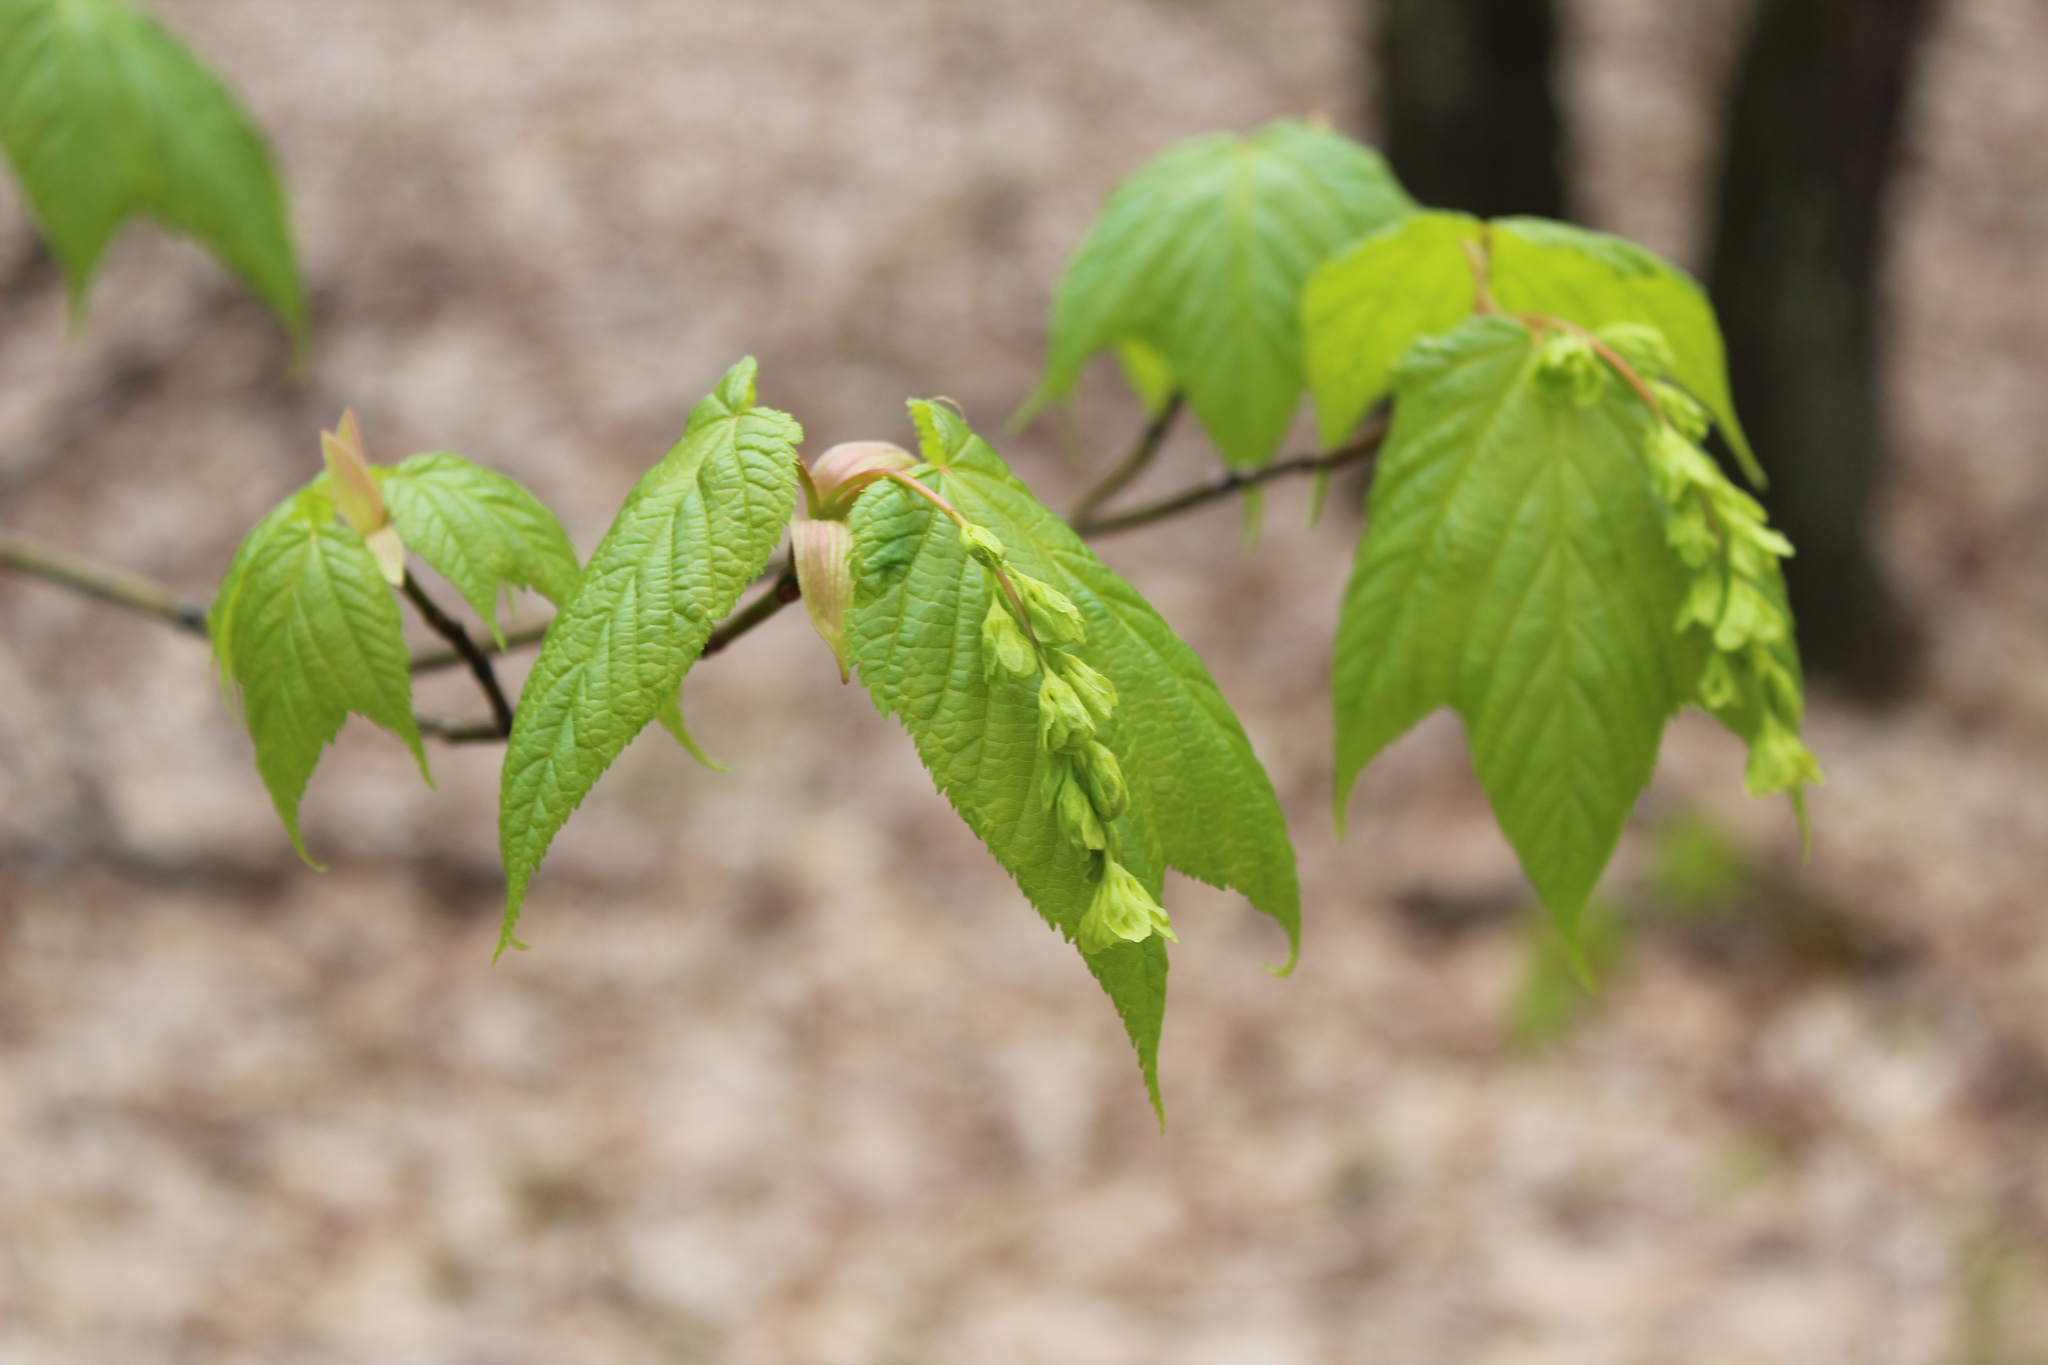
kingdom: Plantae
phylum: Tracheophyta
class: Magnoliopsida
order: Sapindales
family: Sapindaceae
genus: Acer
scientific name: Acer pensylvanicum
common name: Moosewood
